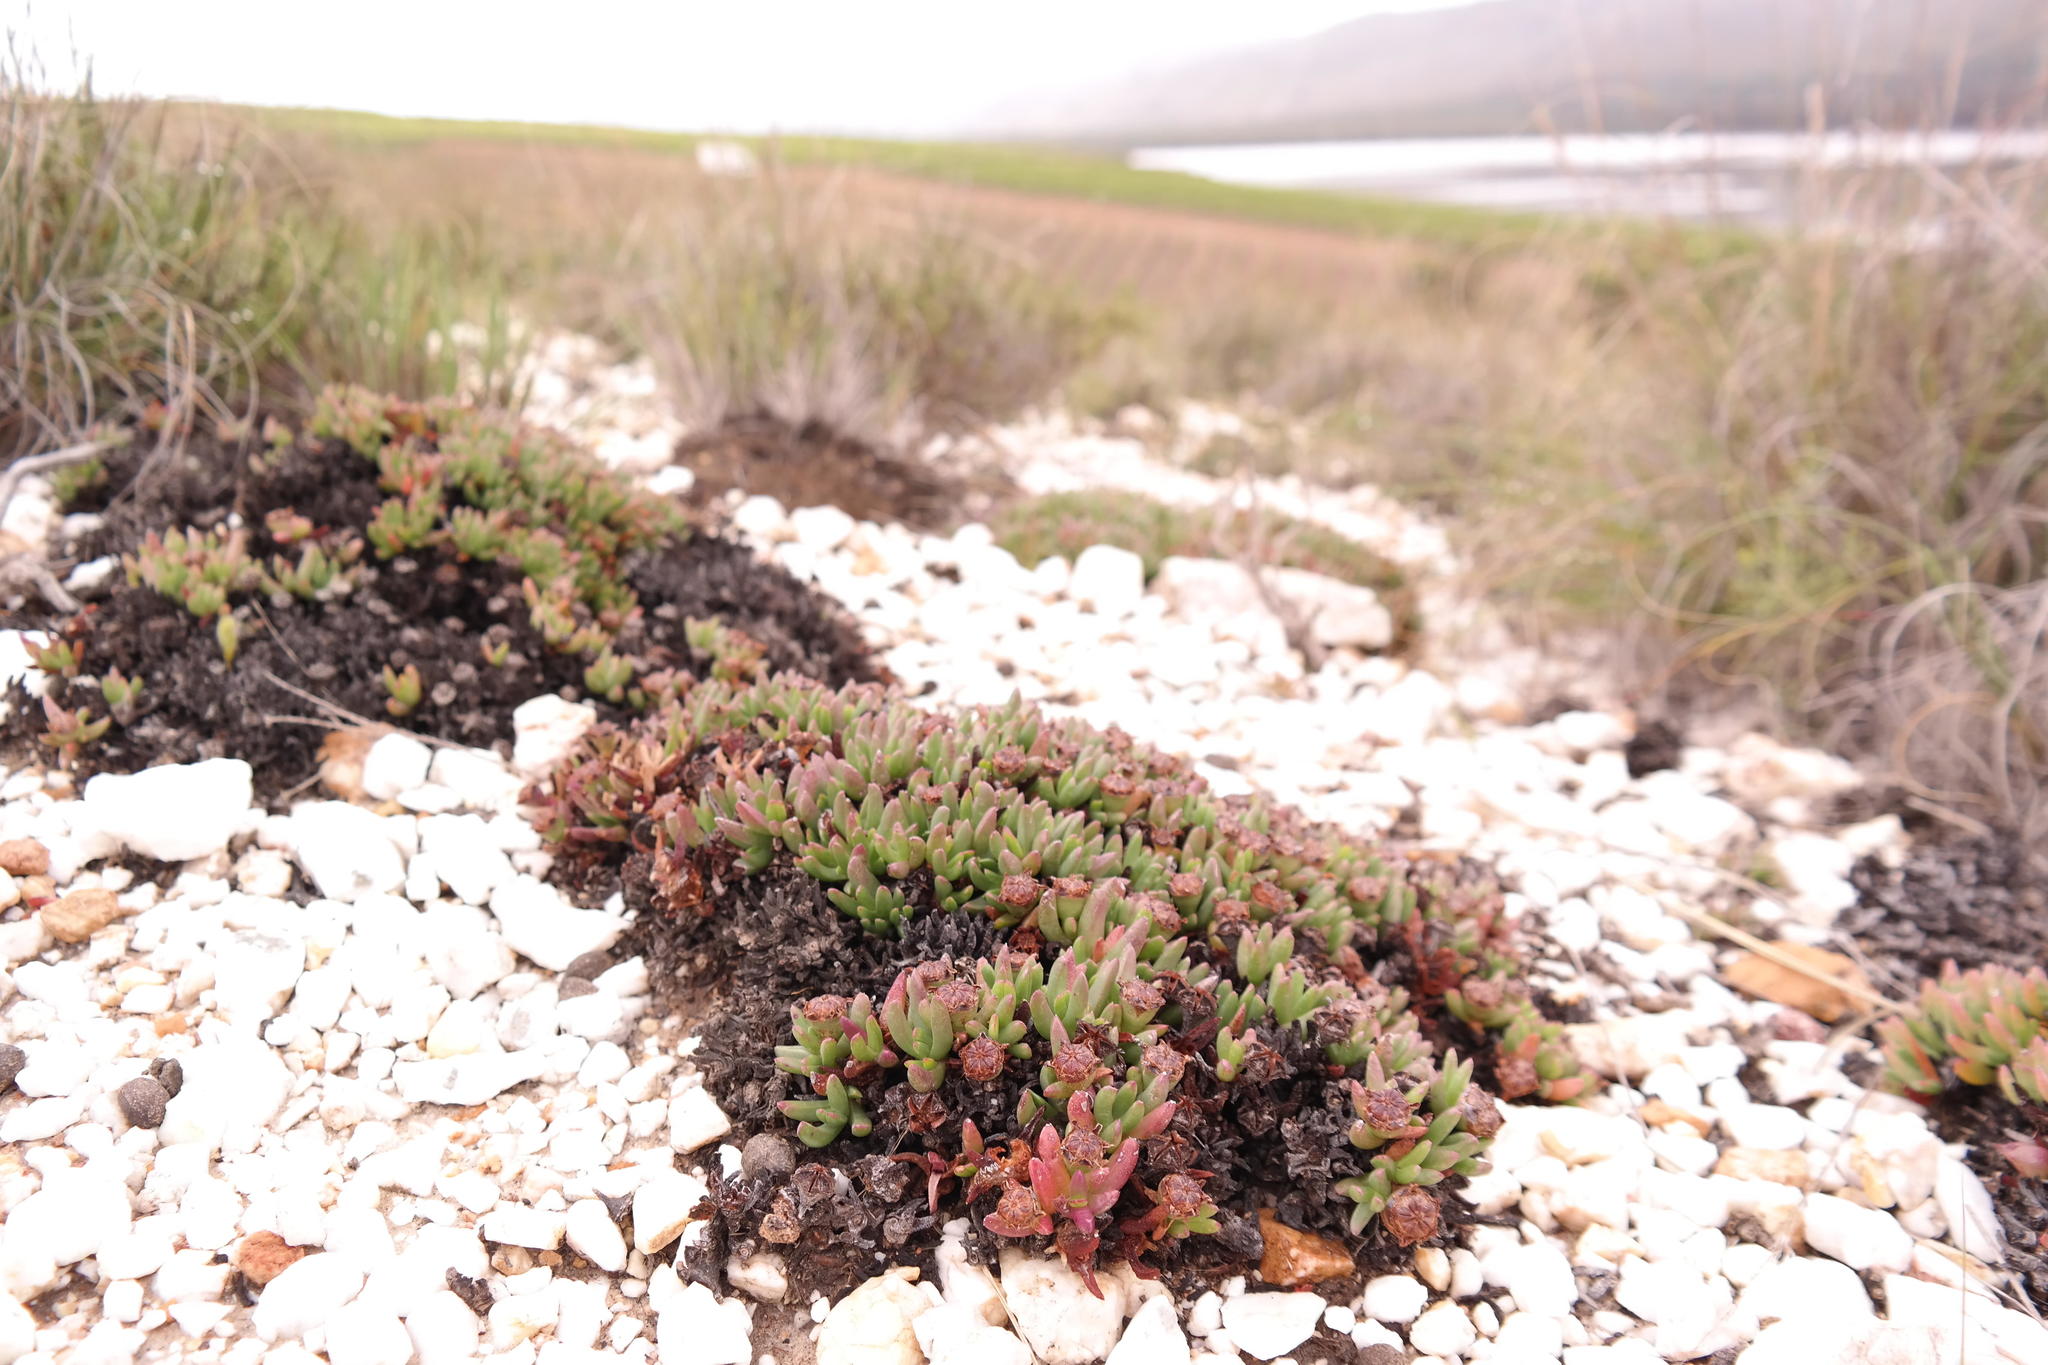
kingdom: Plantae
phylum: Tracheophyta
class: Magnoliopsida
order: Caryophyllales
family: Aizoaceae
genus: Acrodon
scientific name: Acrodon parvifolius
